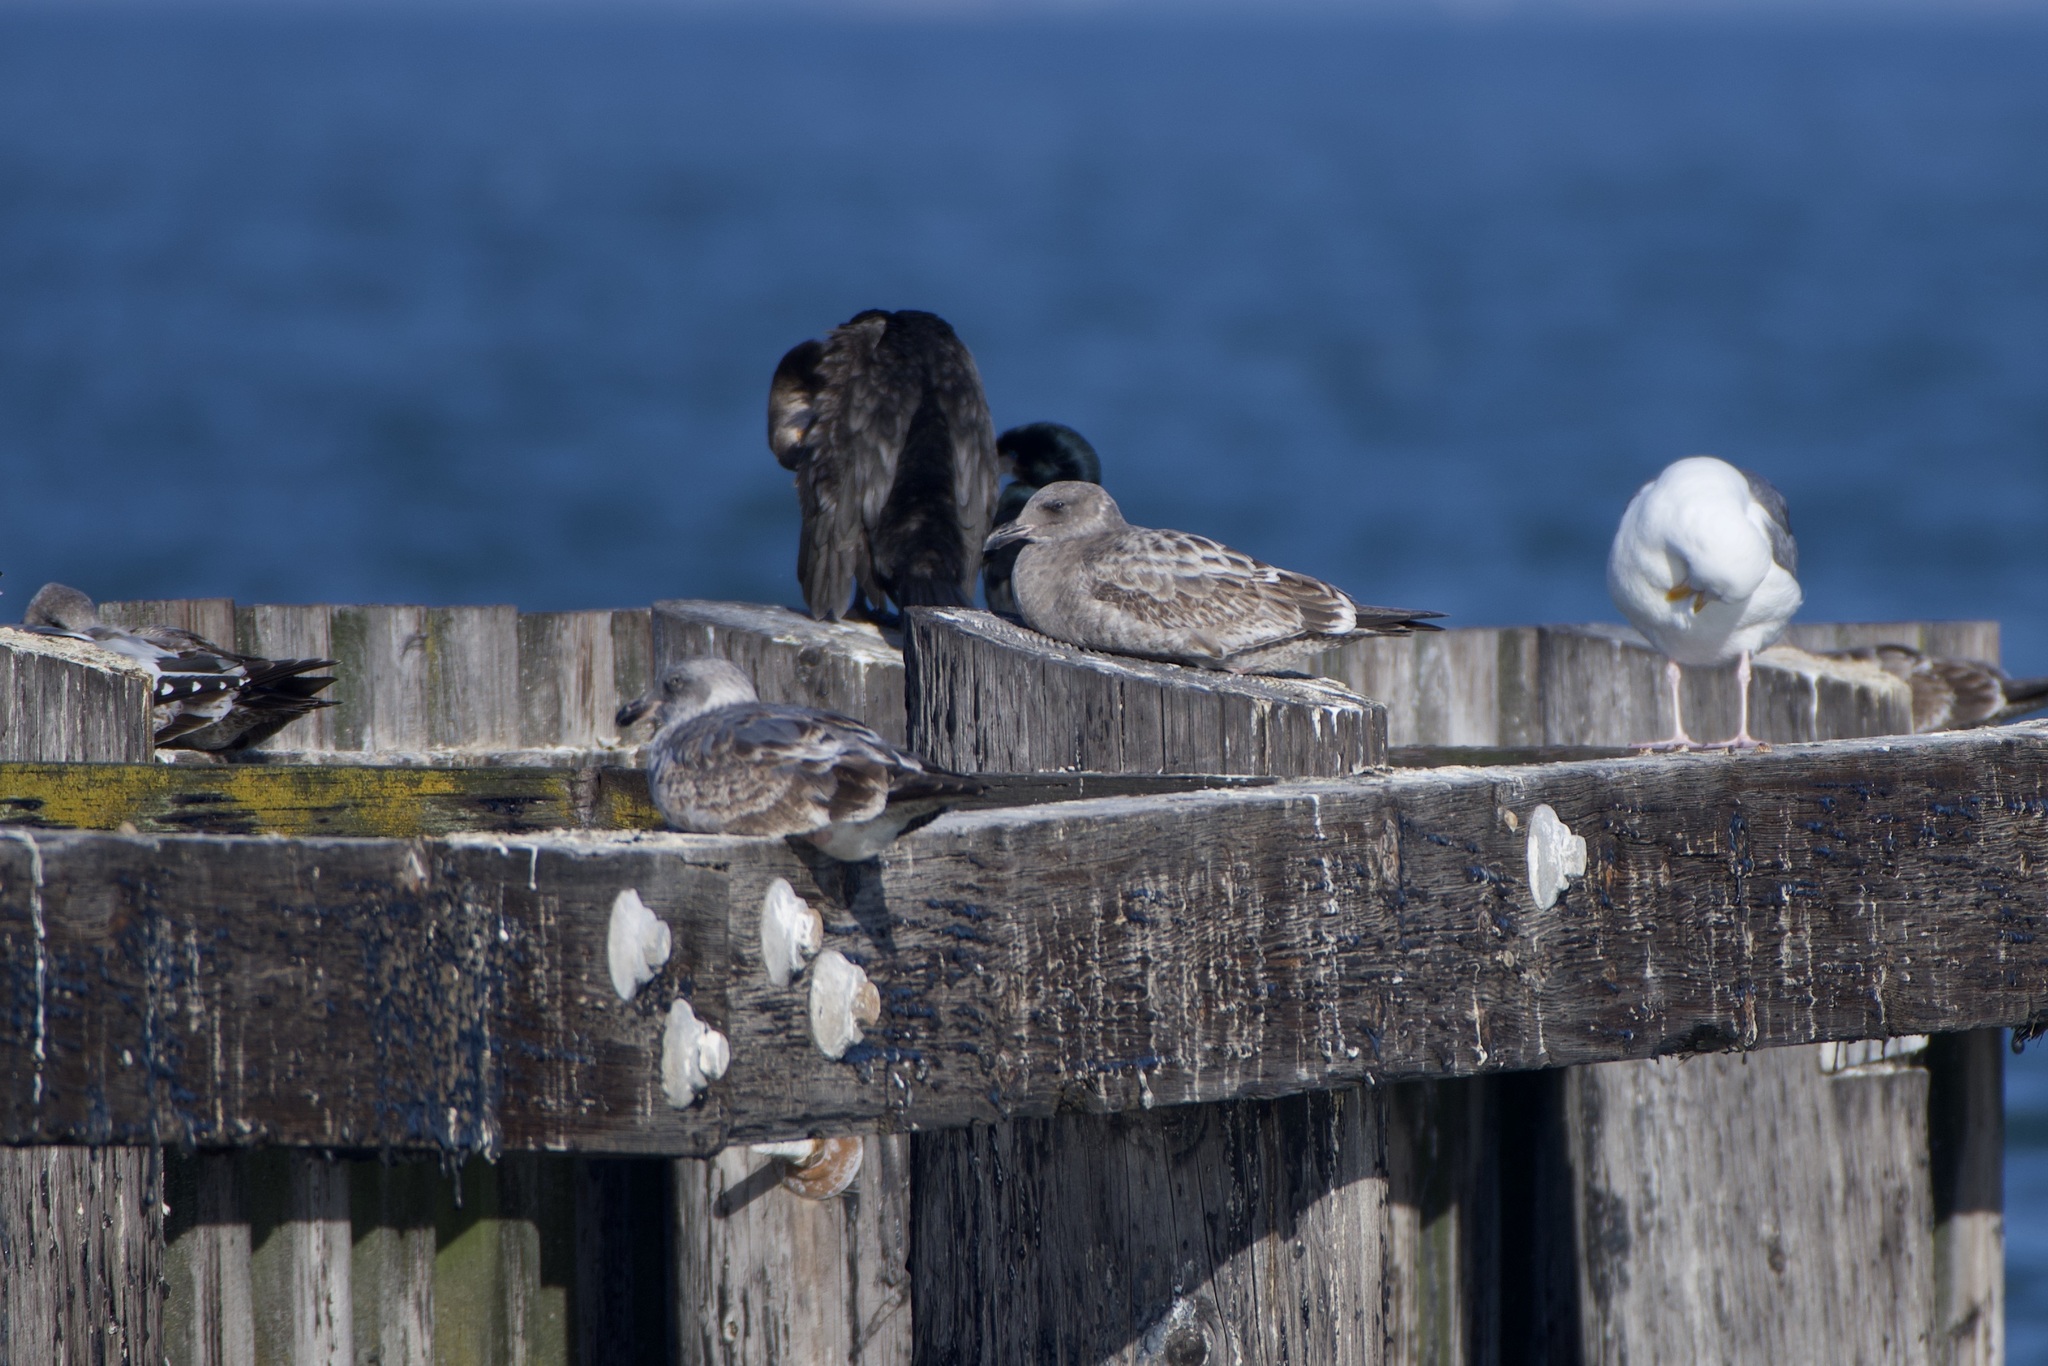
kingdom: Animalia
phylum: Chordata
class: Aves
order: Charadriiformes
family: Laridae
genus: Larus
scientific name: Larus occidentalis
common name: Western gull
